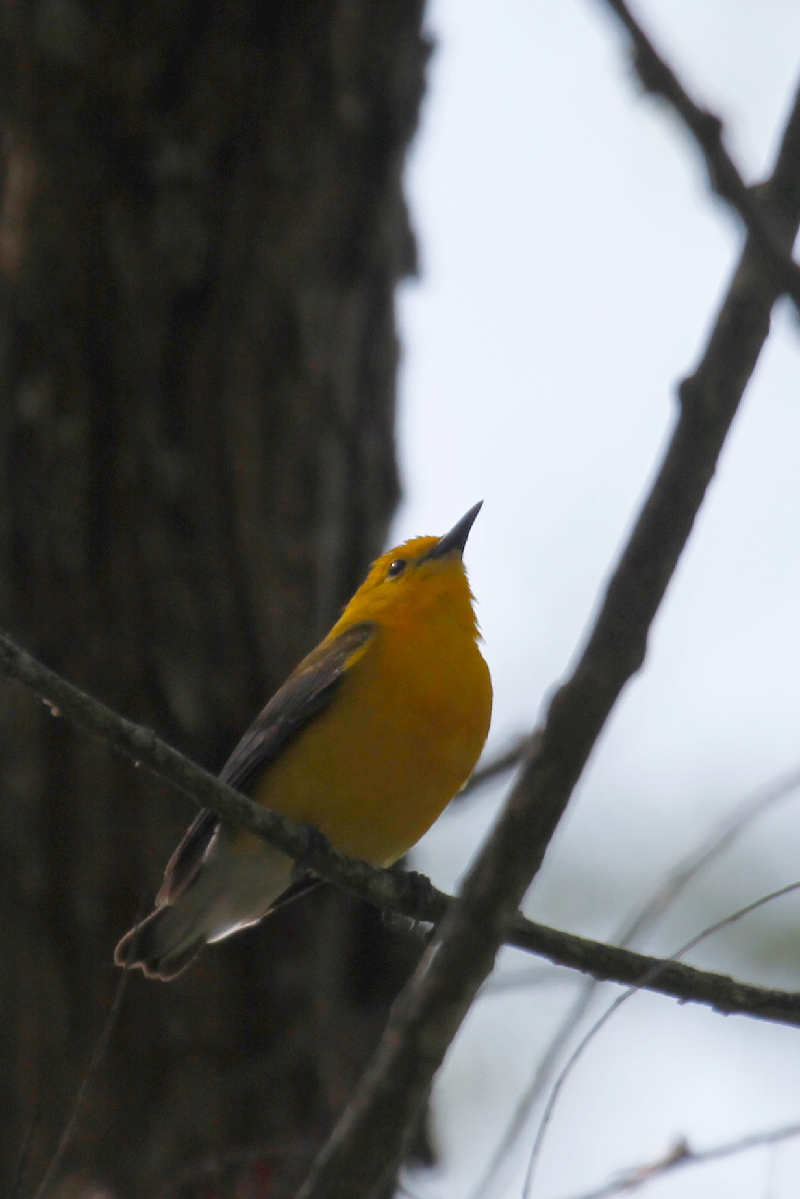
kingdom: Animalia
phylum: Chordata
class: Aves
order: Passeriformes
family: Parulidae
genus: Protonotaria
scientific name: Protonotaria citrea
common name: Prothonotary warbler
